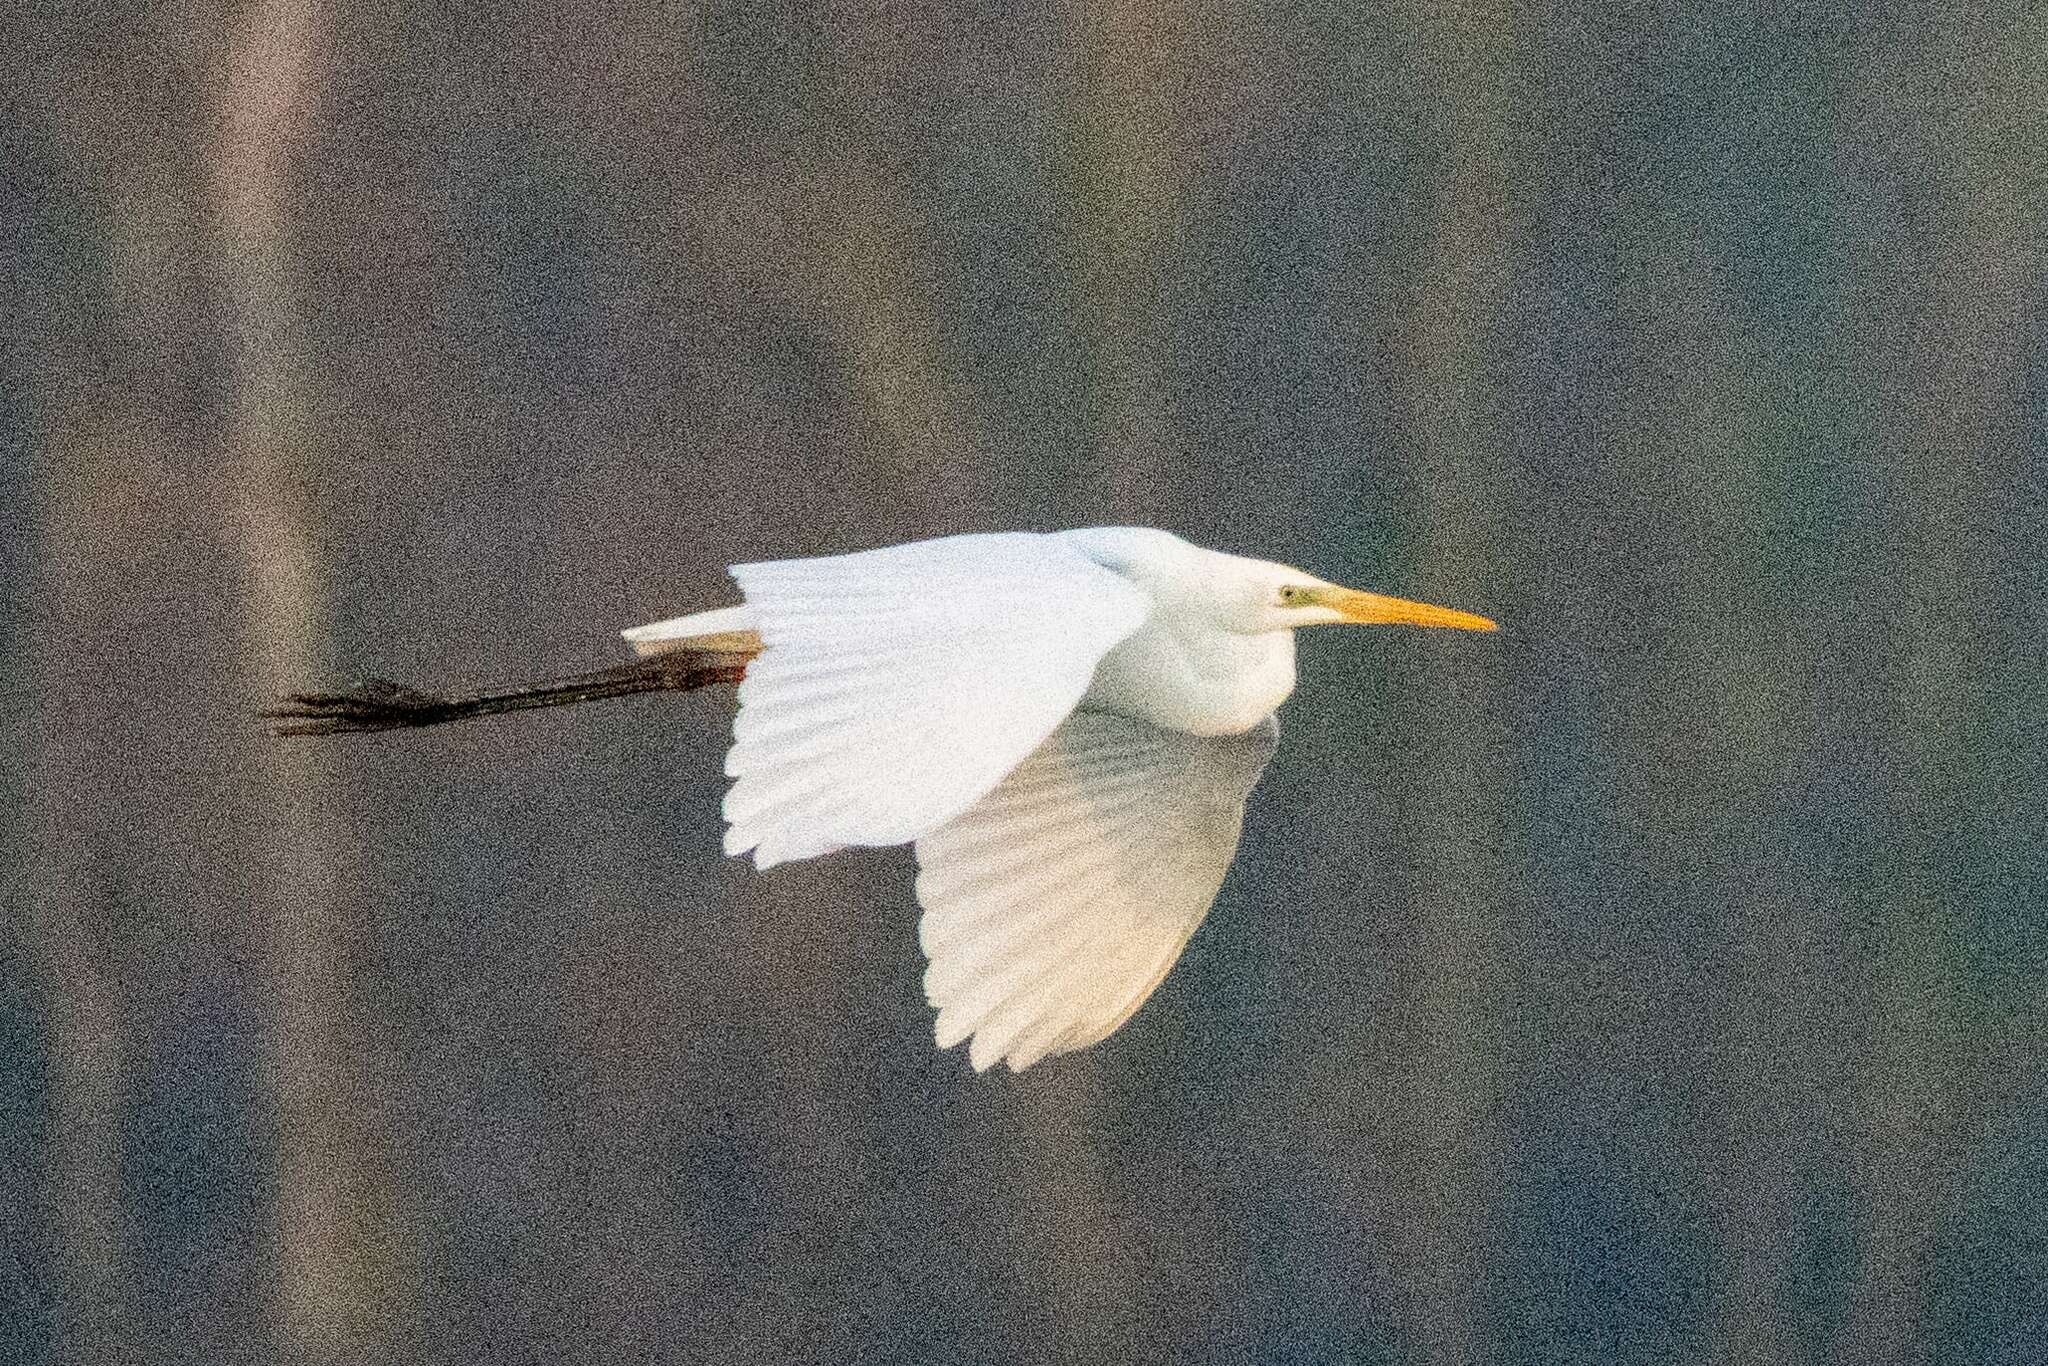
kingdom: Animalia
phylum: Chordata
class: Aves
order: Pelecaniformes
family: Ardeidae
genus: Ardea
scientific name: Ardea alba
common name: Great egret
